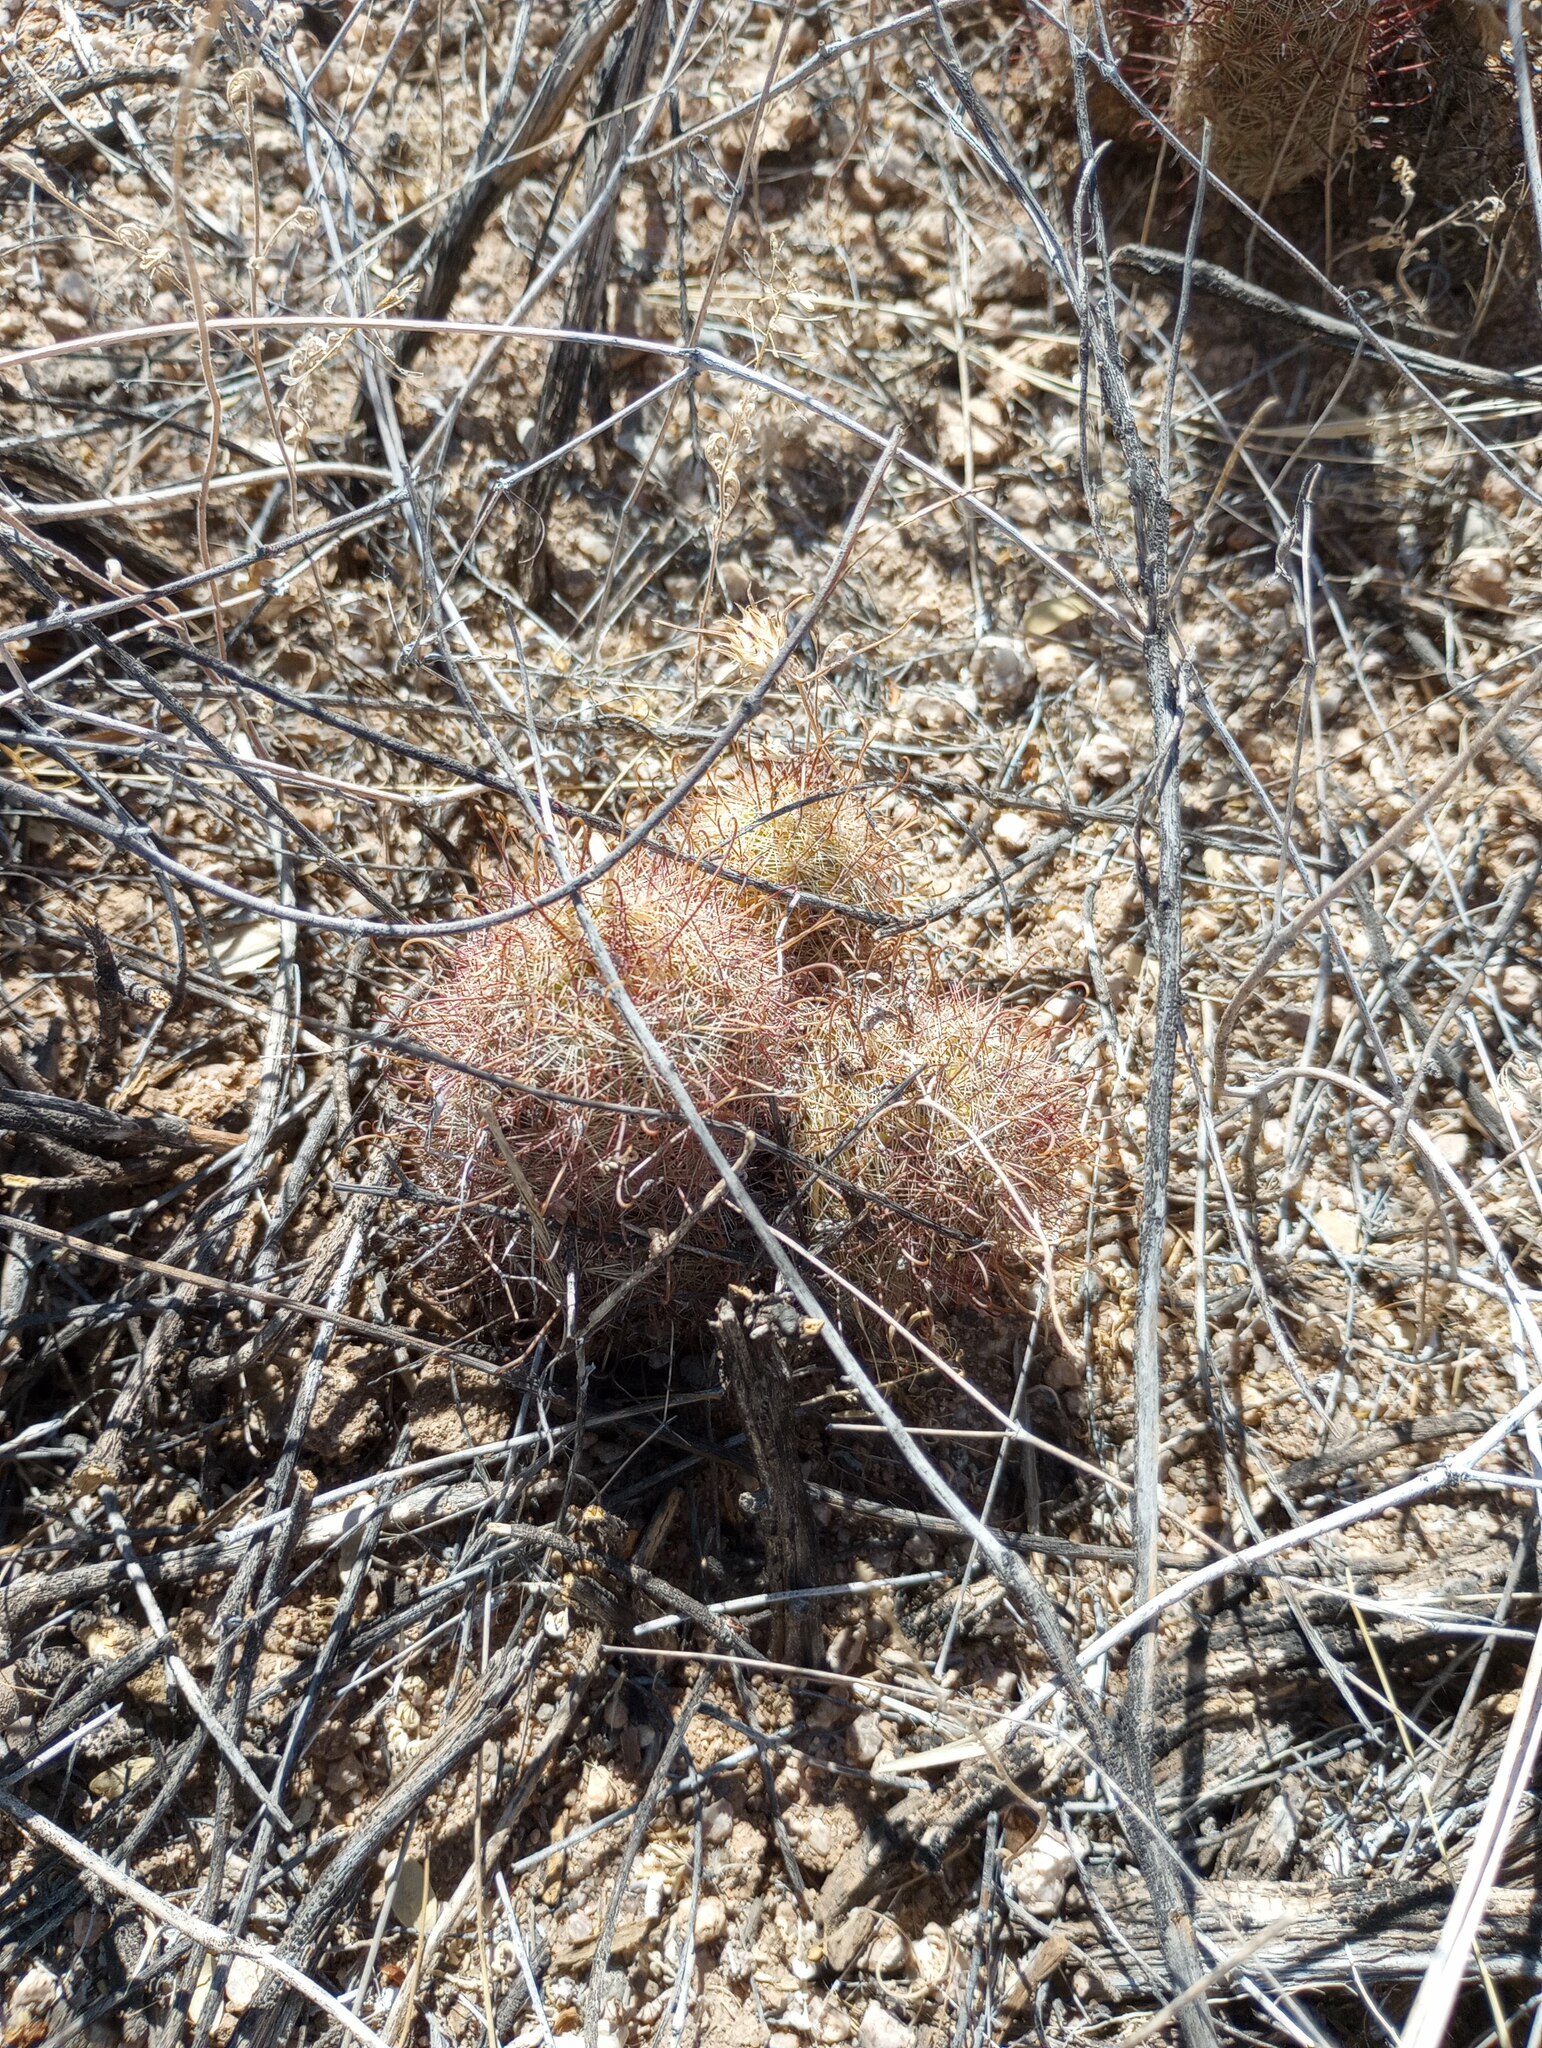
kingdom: Plantae
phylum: Tracheophyta
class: Magnoliopsida
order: Caryophyllales
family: Cactaceae
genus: Cochemiea
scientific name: Cochemiea grahamii
